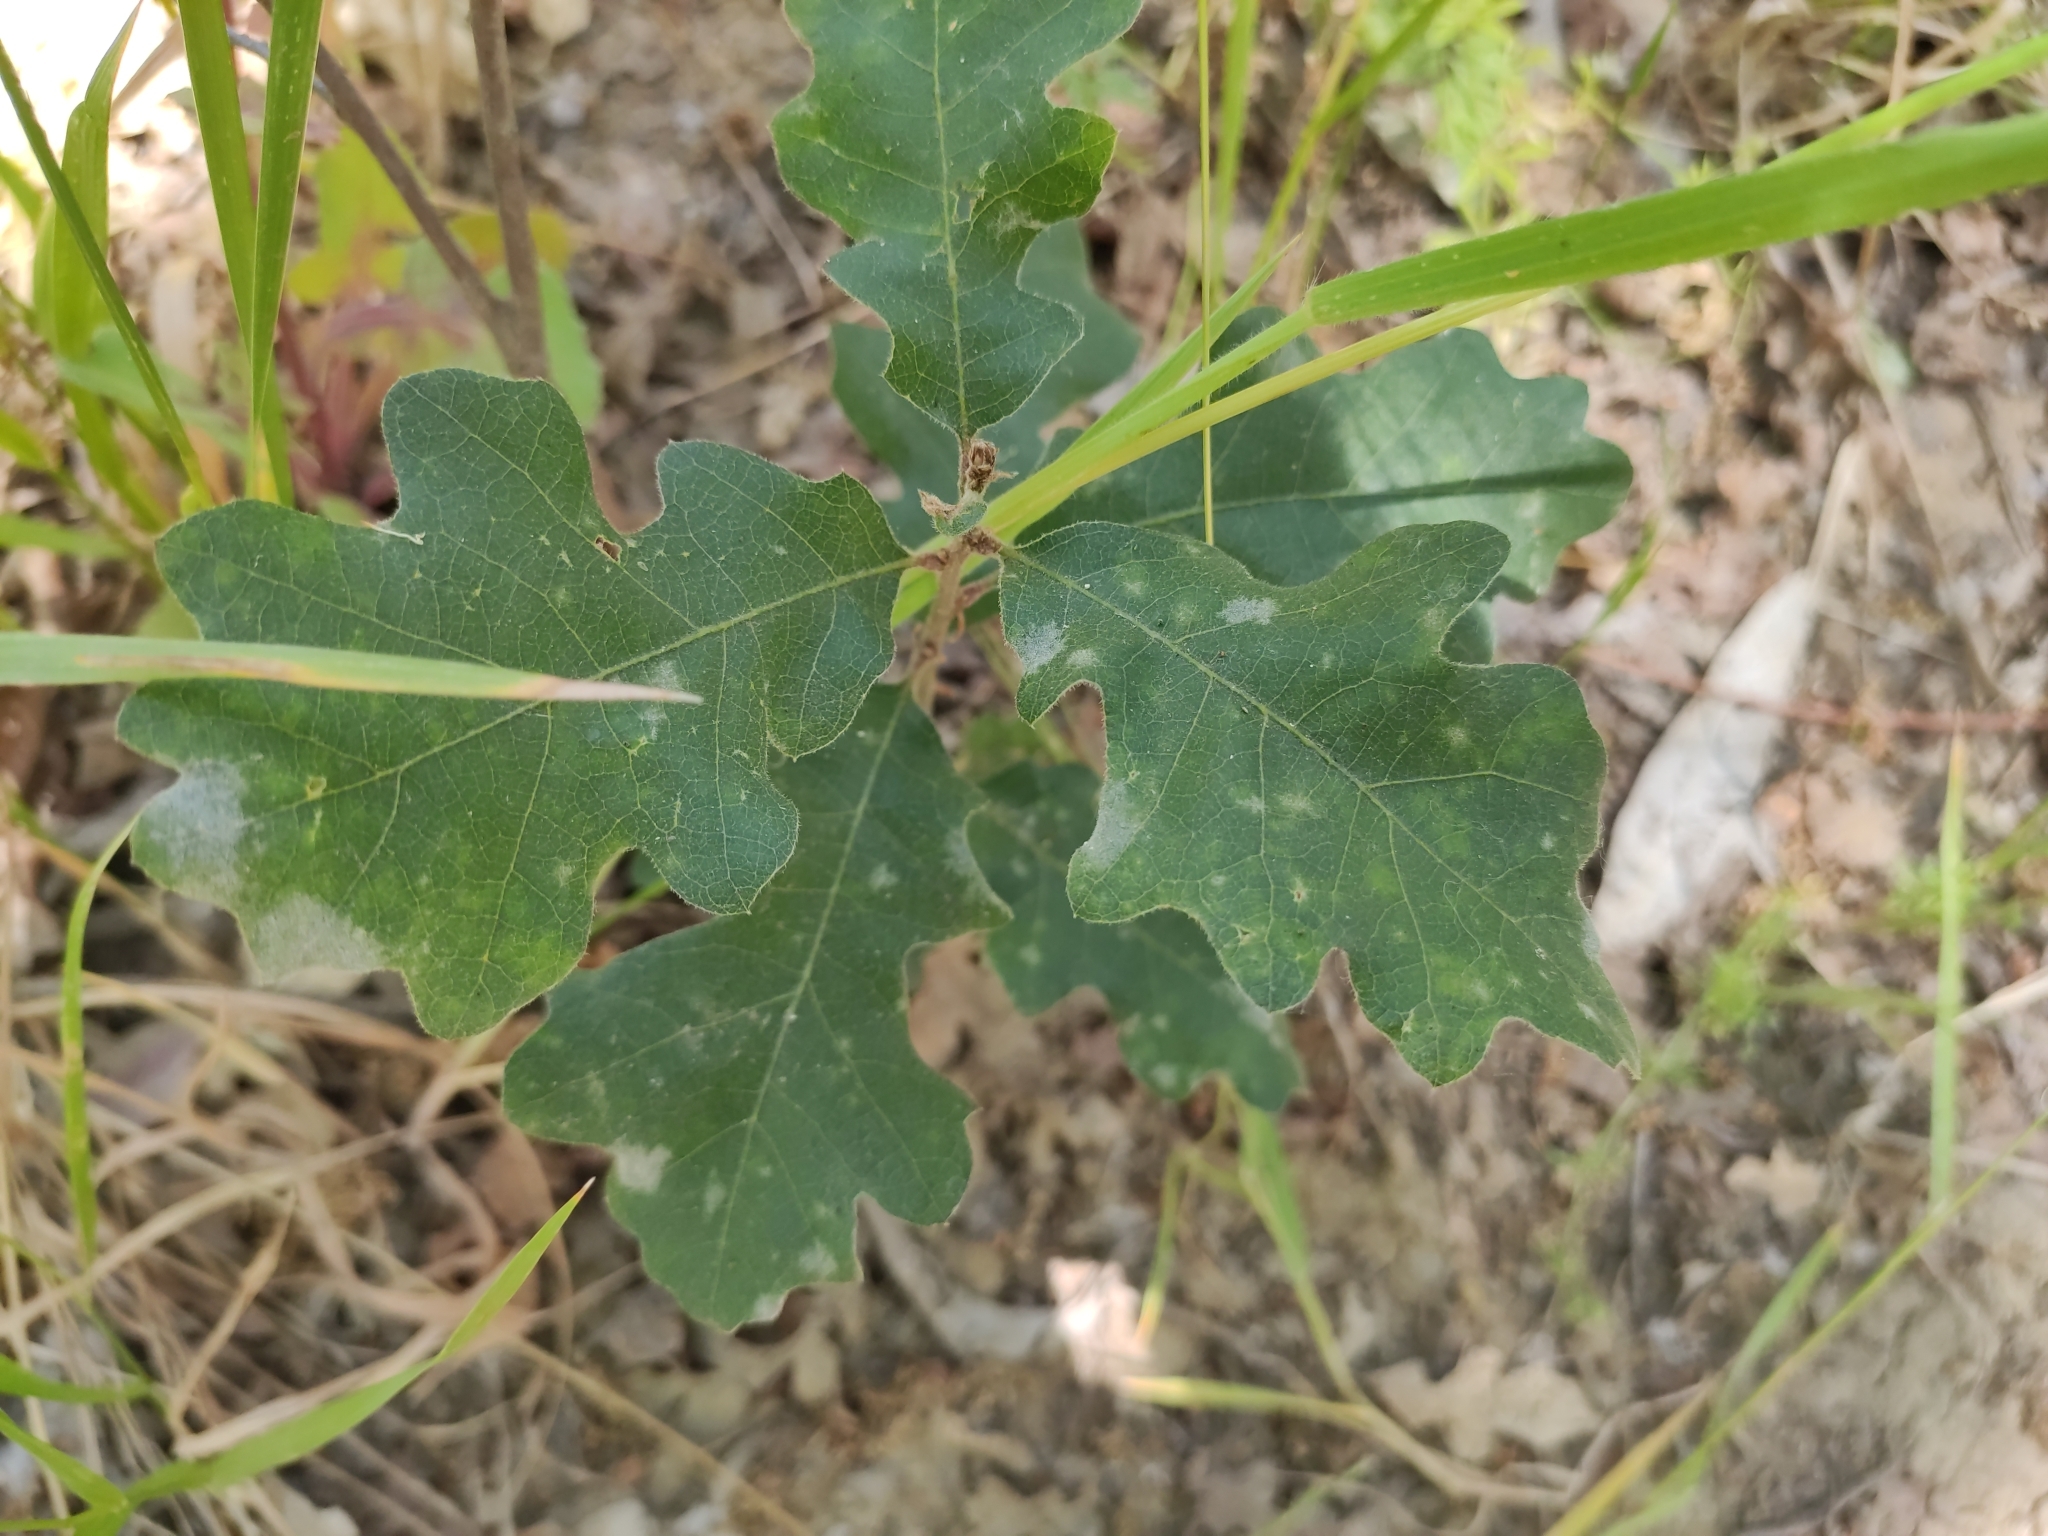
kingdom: Plantae
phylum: Tracheophyta
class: Magnoliopsida
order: Fagales
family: Fagaceae
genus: Quercus
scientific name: Quercus lobata
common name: Valley oak
